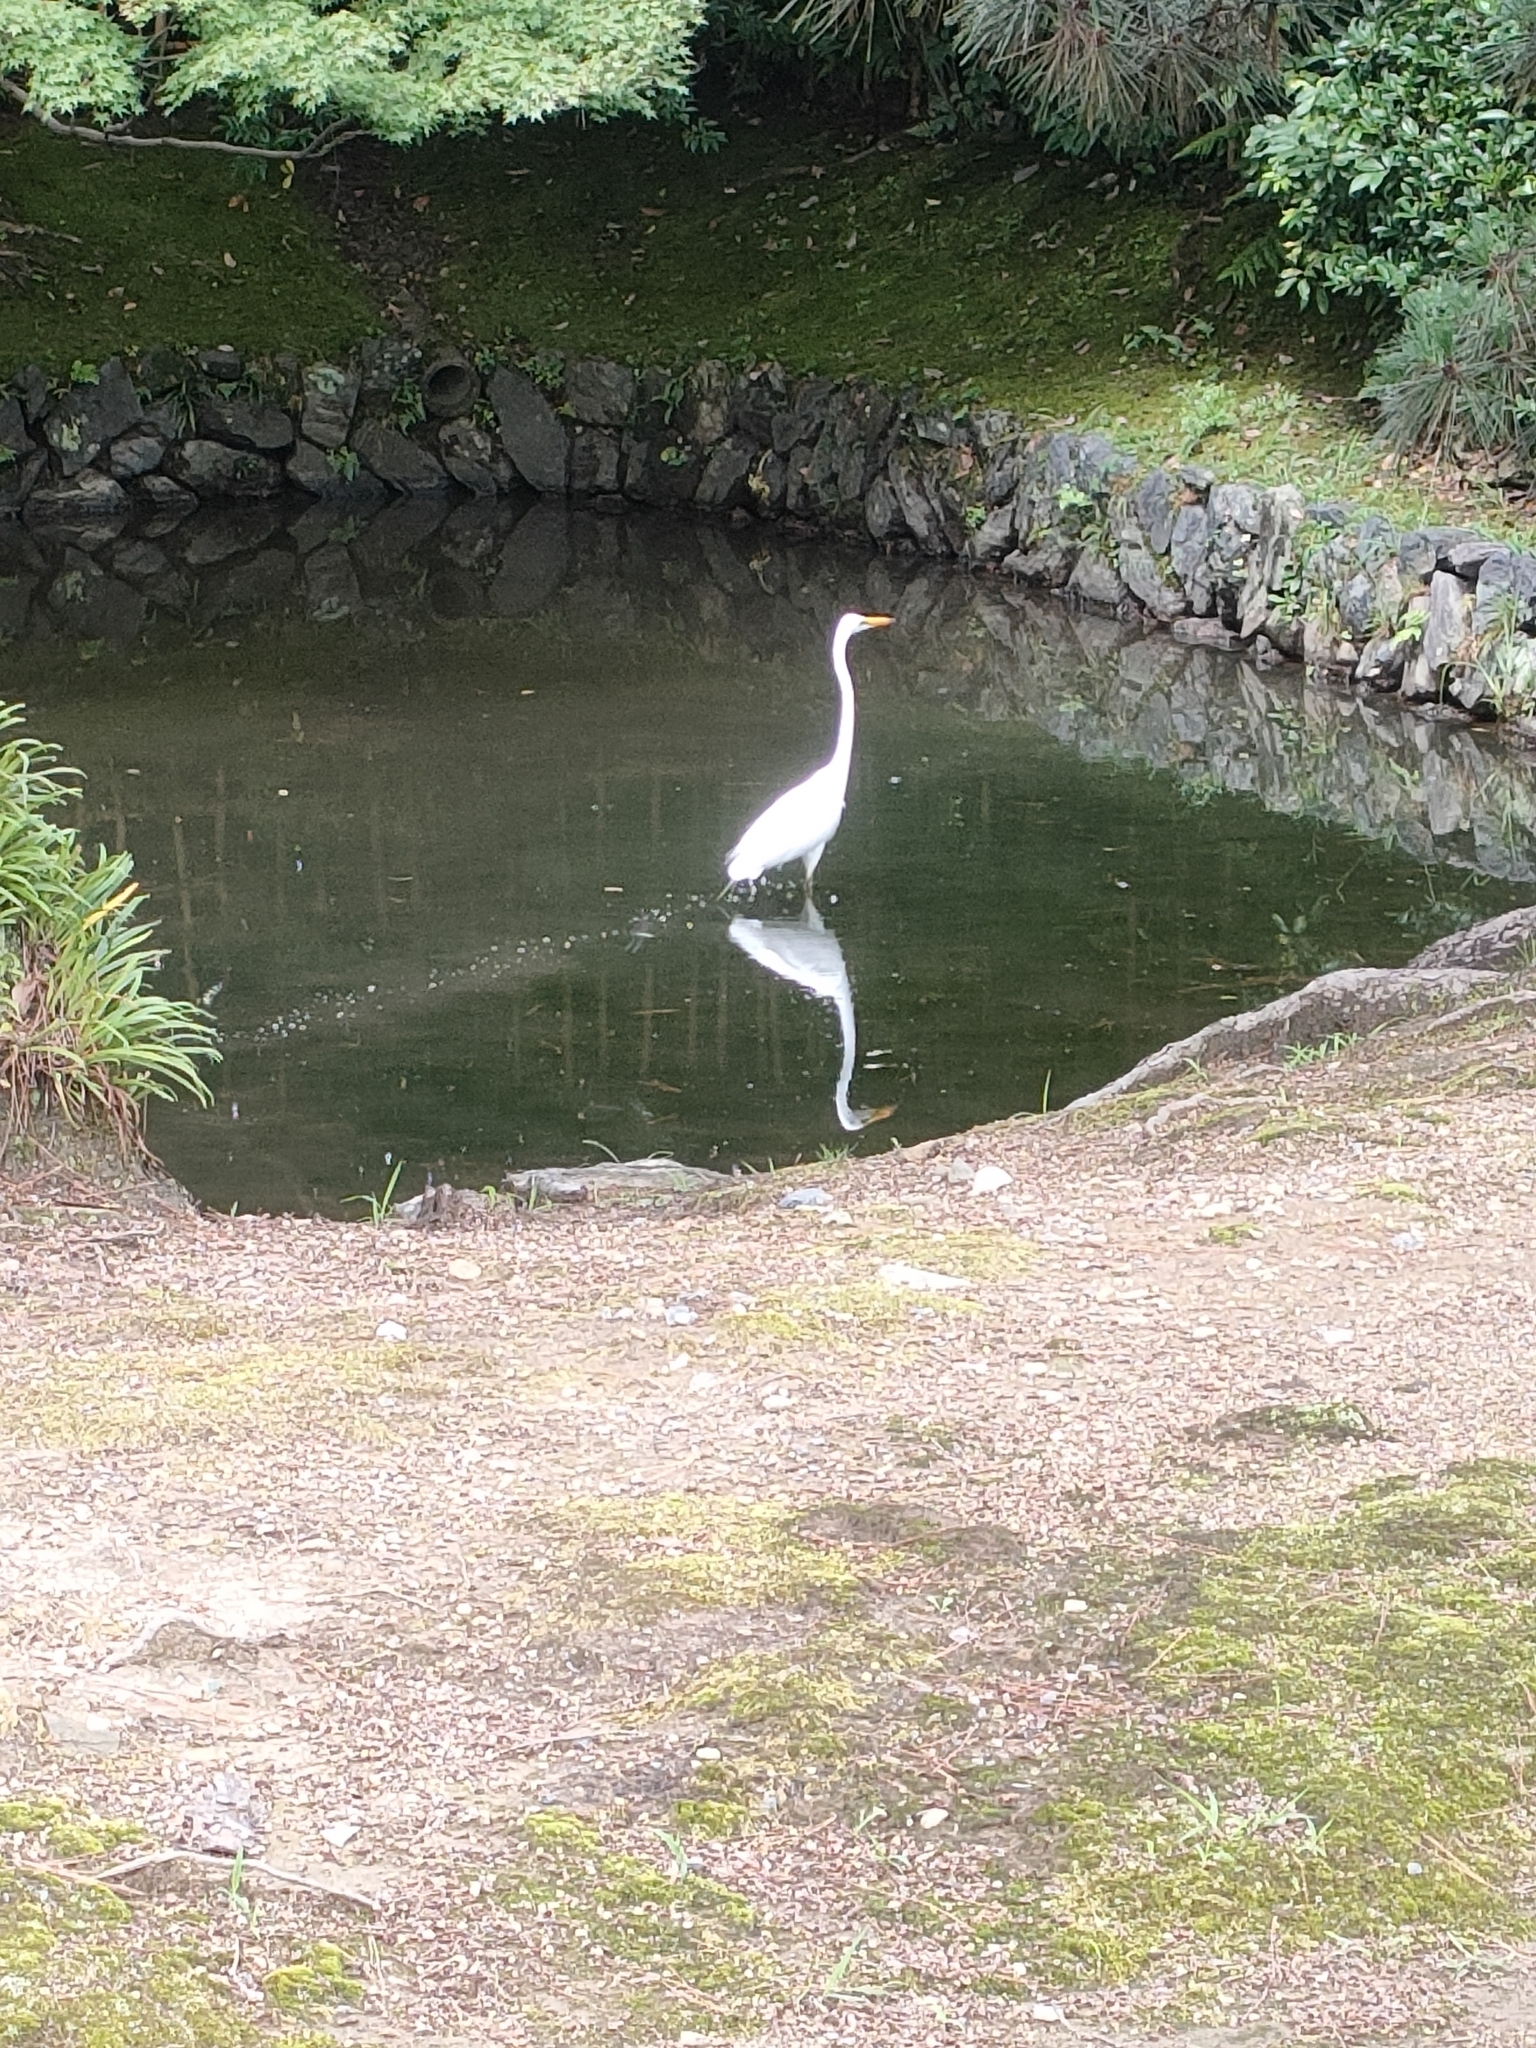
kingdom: Animalia
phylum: Chordata
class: Aves
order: Pelecaniformes
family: Ardeidae
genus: Ardea
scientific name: Ardea alba
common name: Great egret
